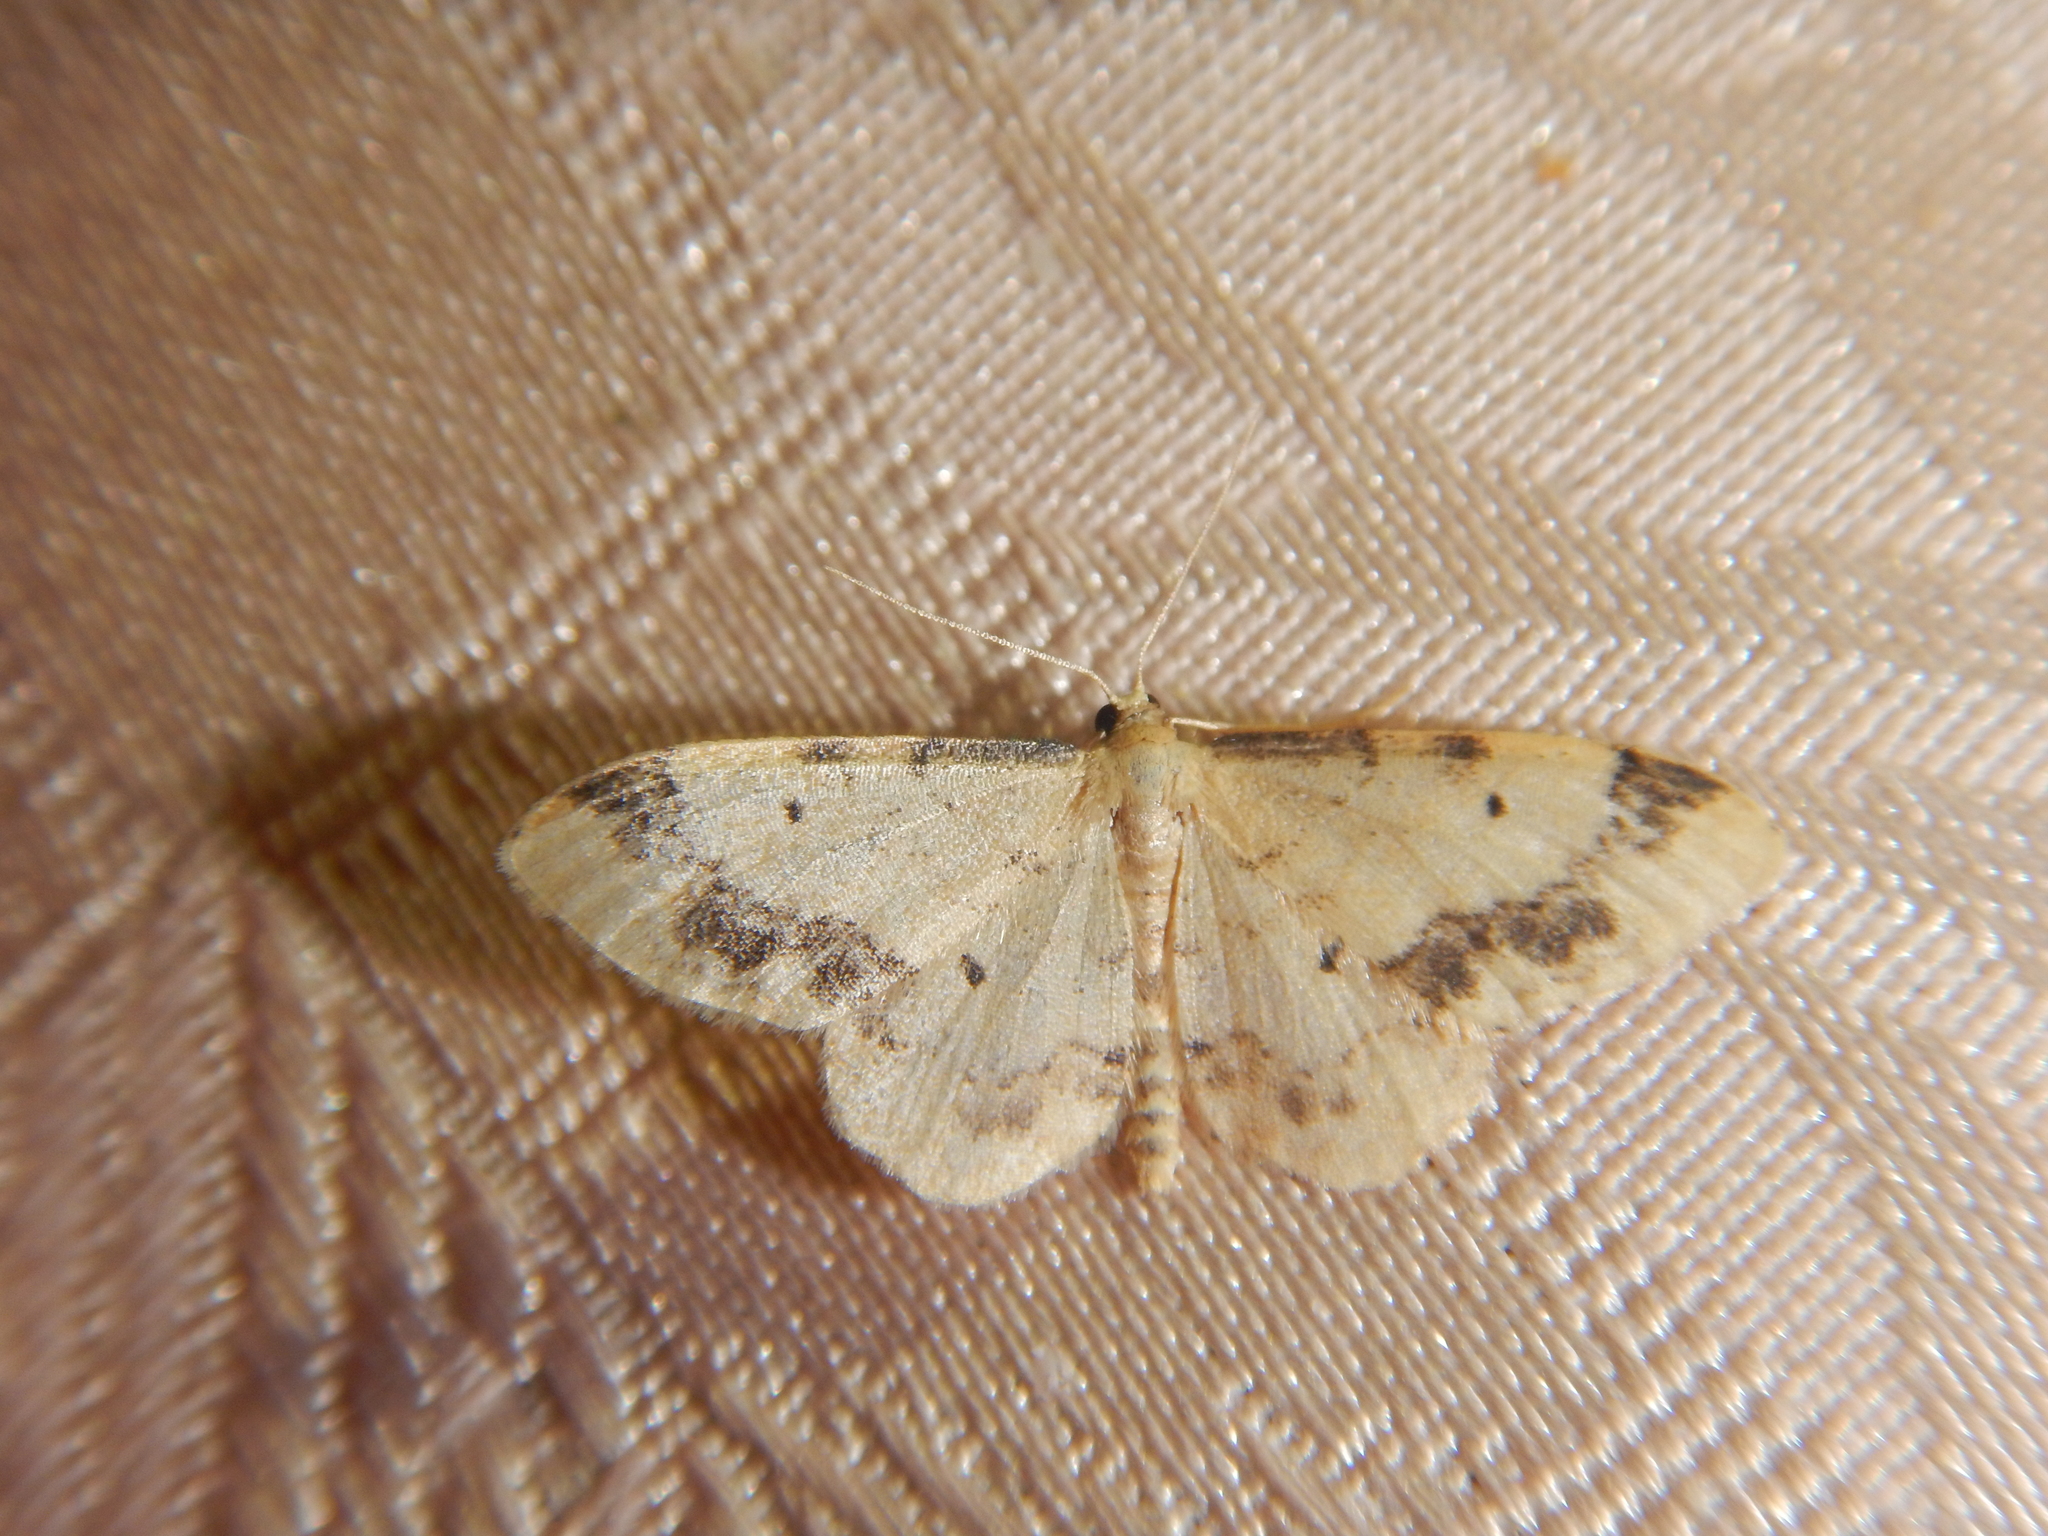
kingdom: Animalia
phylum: Arthropoda
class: Insecta
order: Lepidoptera
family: Geometridae
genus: Idaea
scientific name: Idaea trigeminata
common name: Treble brown spot
